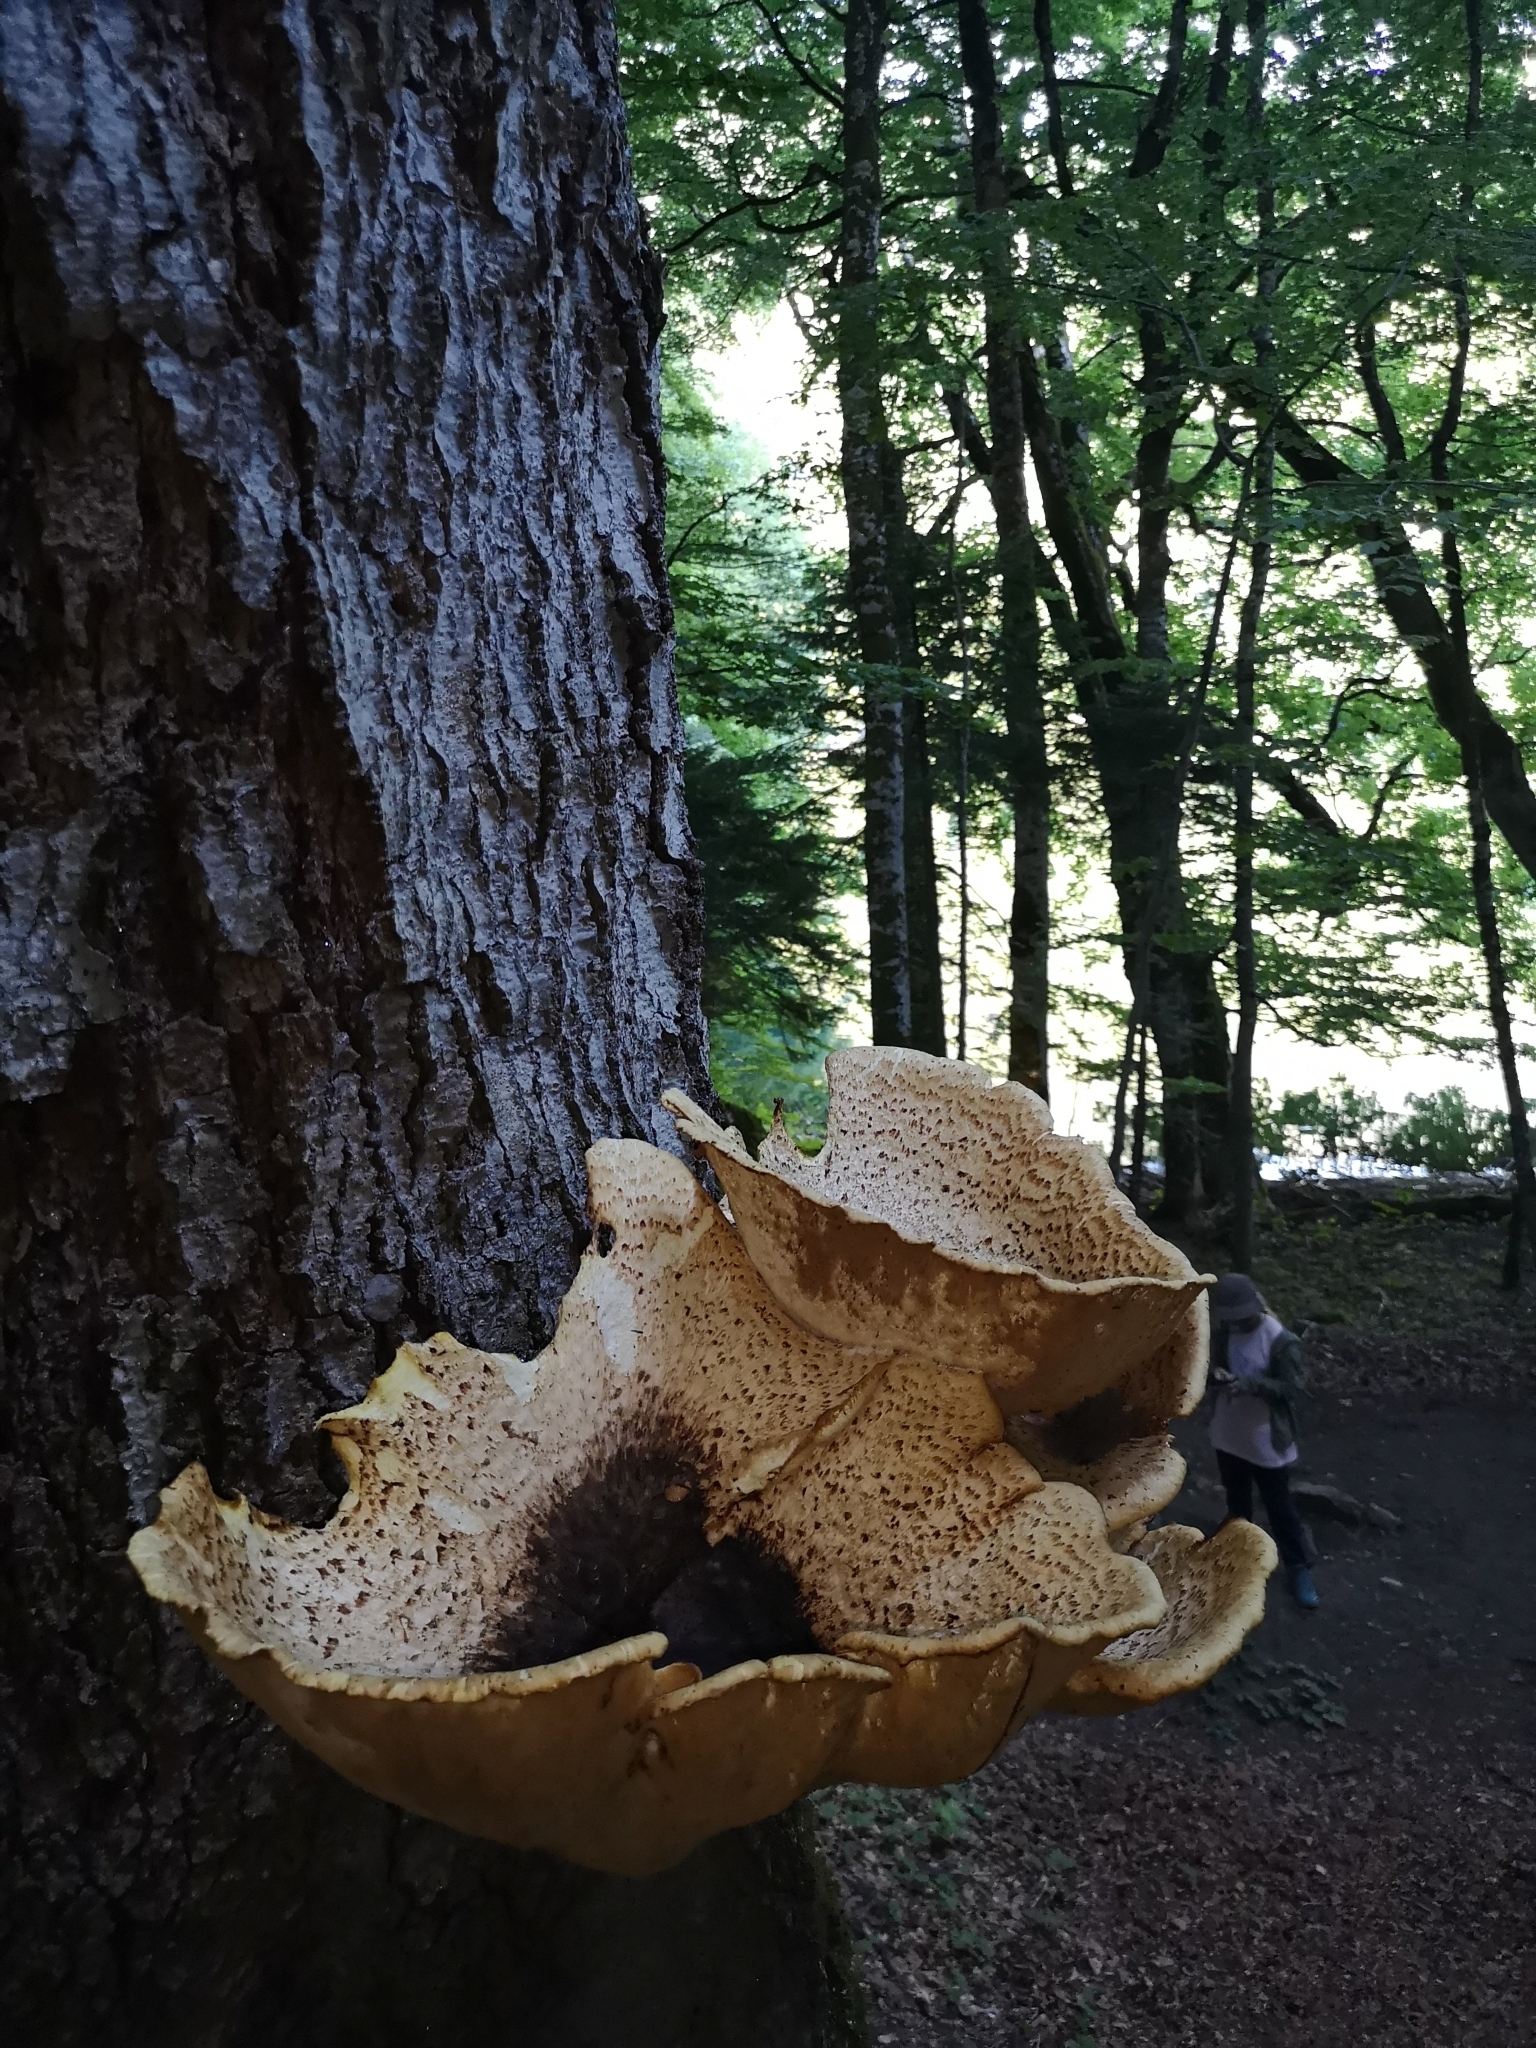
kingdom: Fungi
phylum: Basidiomycota
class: Agaricomycetes
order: Polyporales
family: Polyporaceae
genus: Cerioporus
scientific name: Cerioporus squamosus
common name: Dryad's saddle
